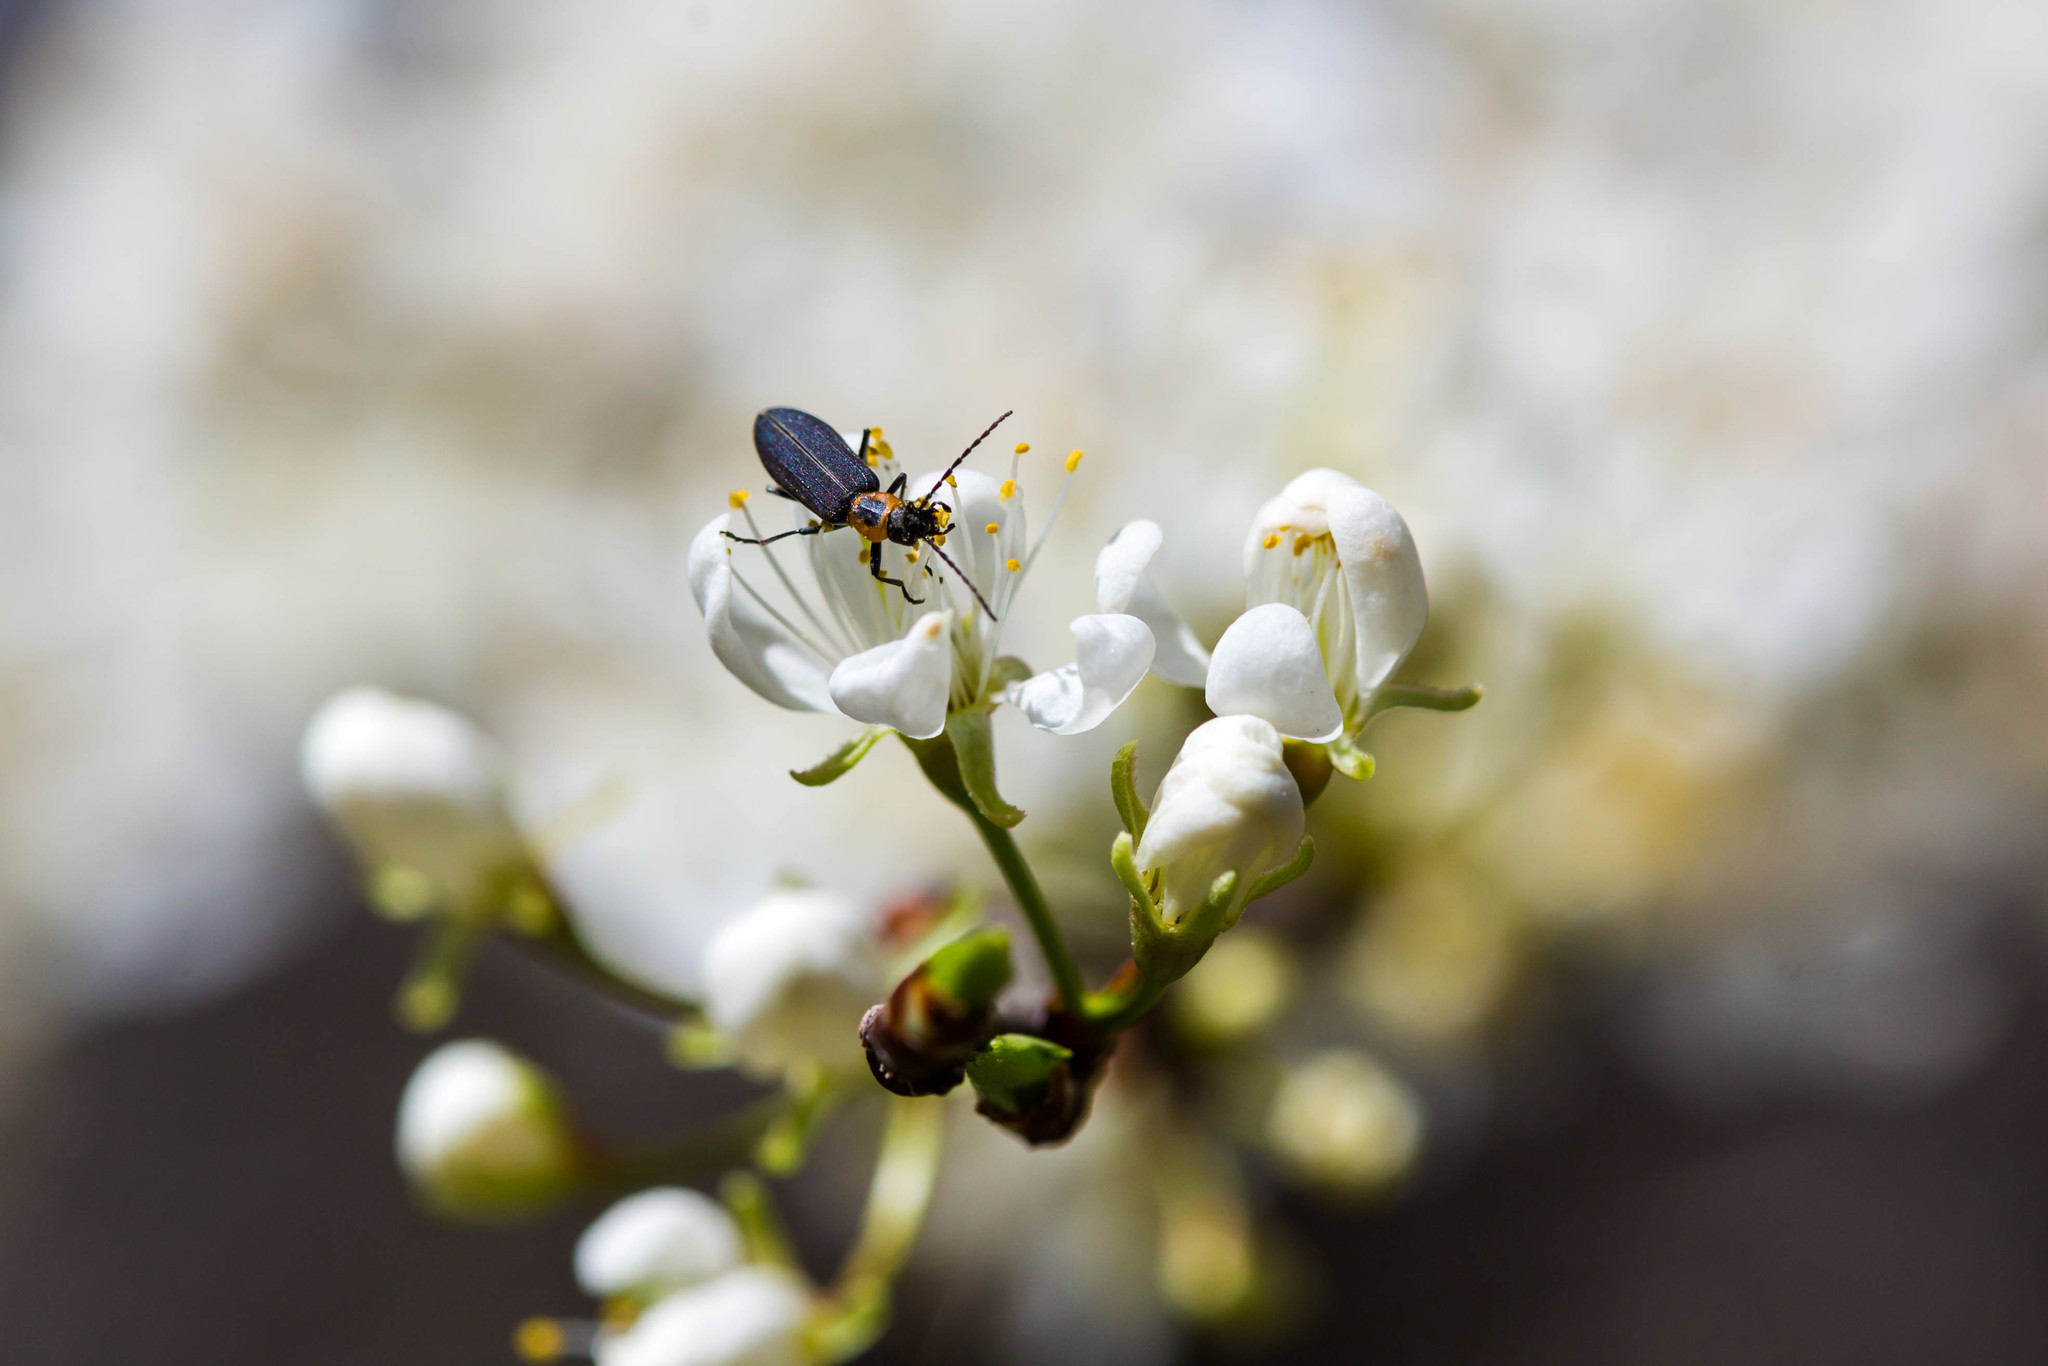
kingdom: Animalia
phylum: Arthropoda
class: Insecta
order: Coleoptera
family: Oedemeridae
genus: Ischnomera
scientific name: Ischnomera
